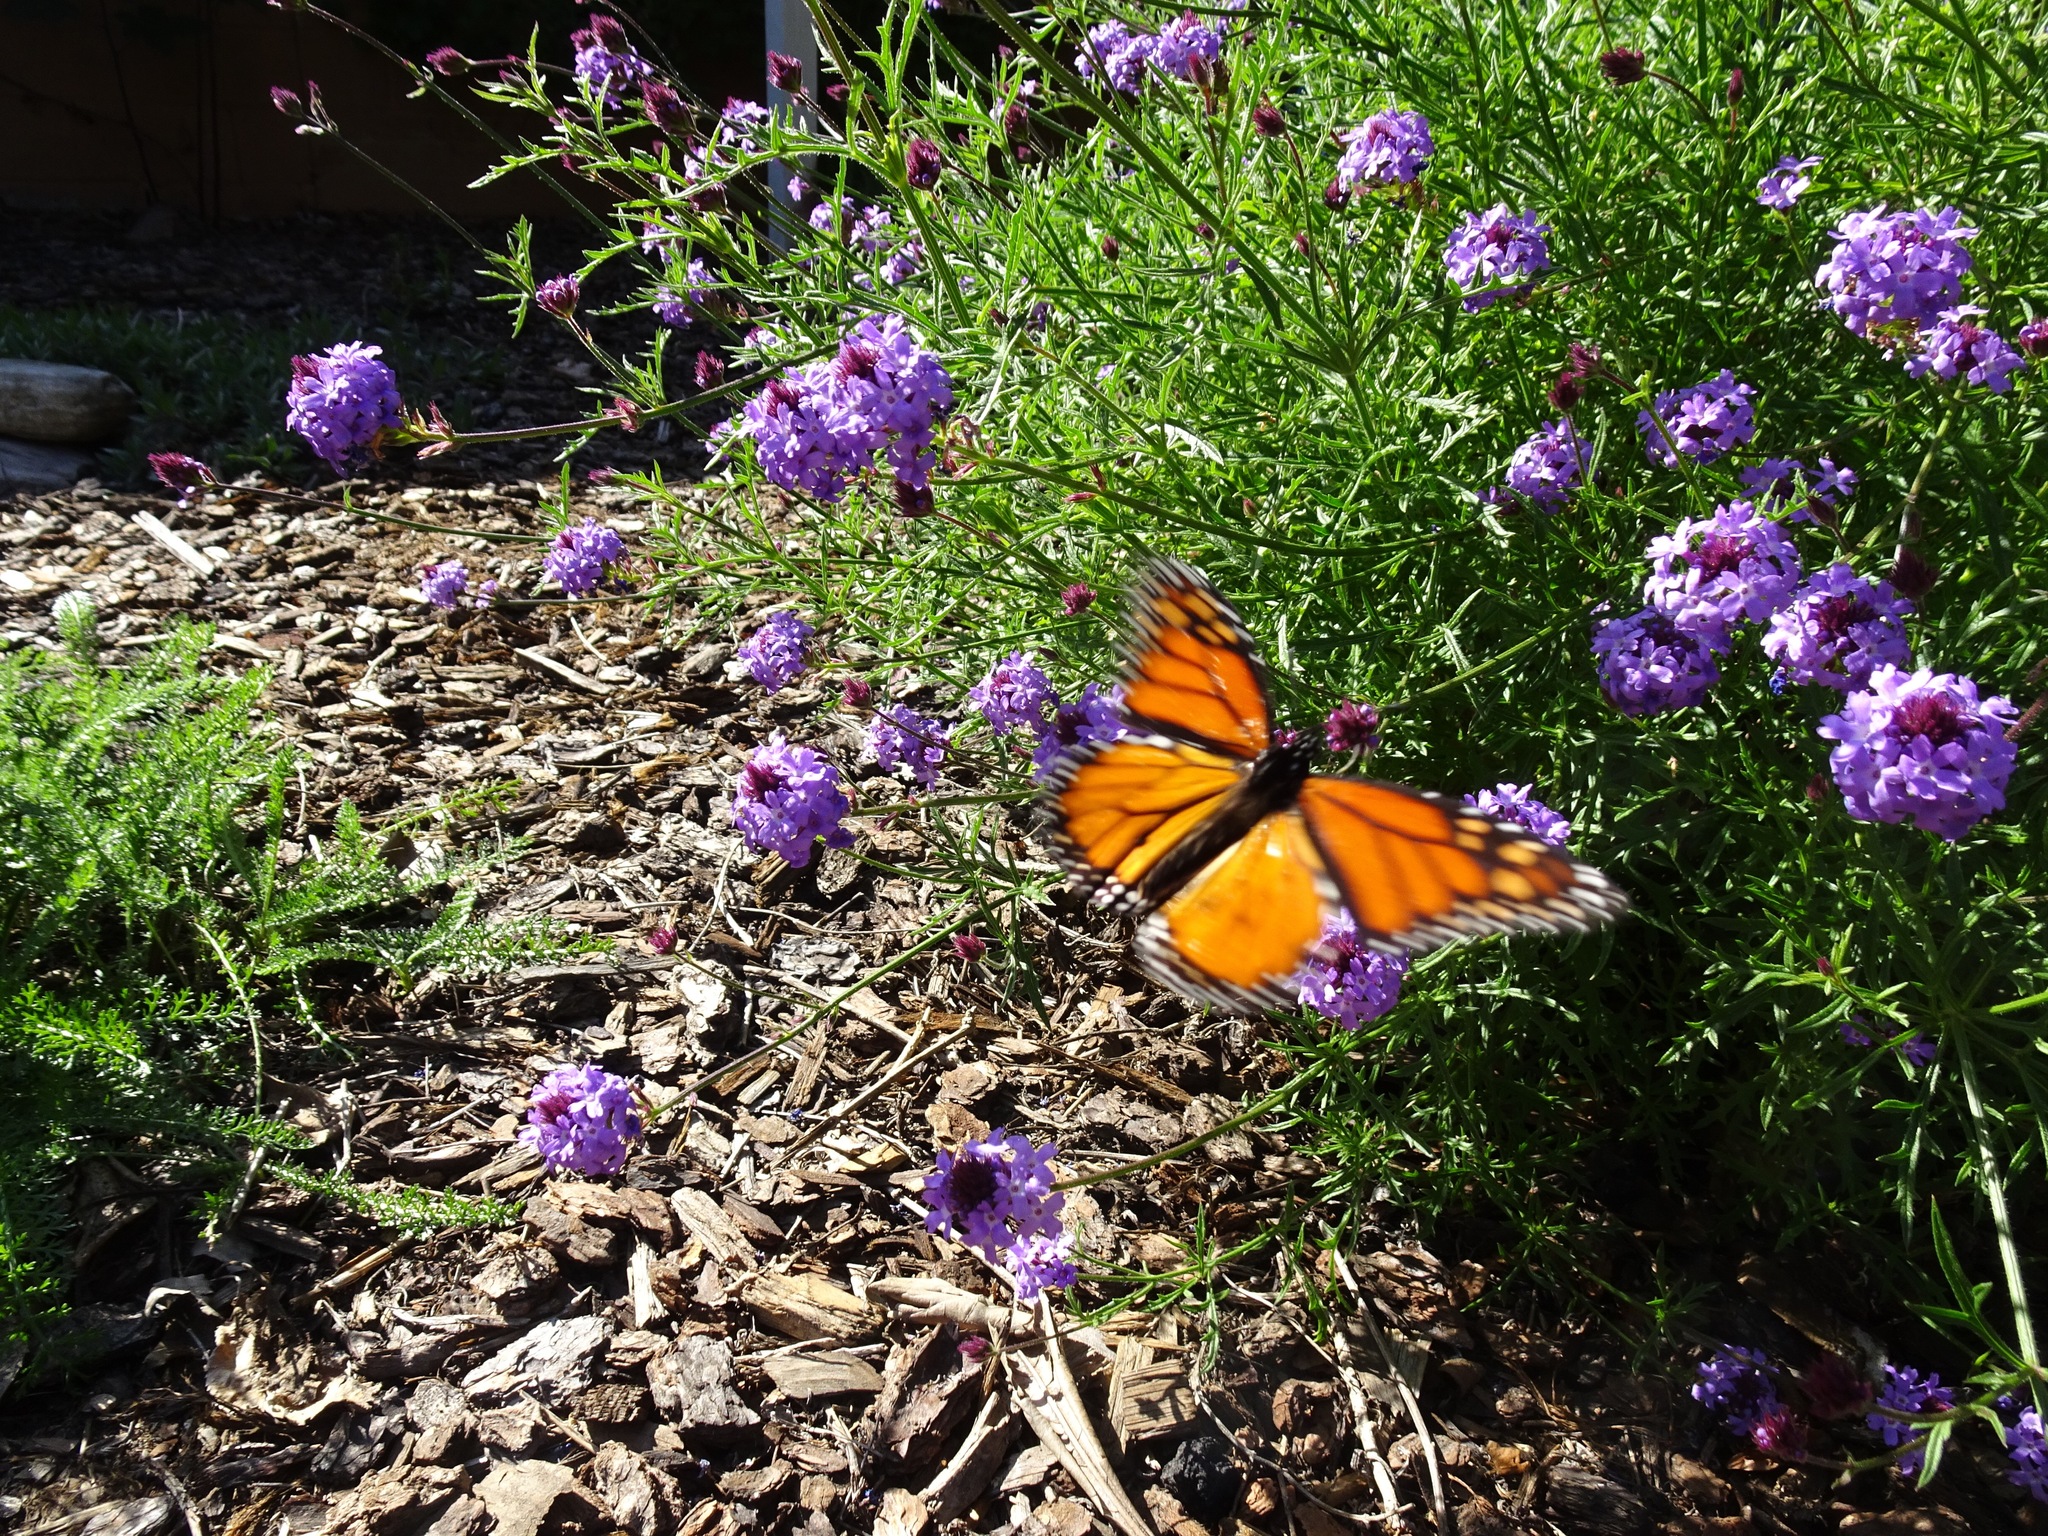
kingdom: Animalia
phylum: Arthropoda
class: Insecta
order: Lepidoptera
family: Nymphalidae
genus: Danaus
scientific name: Danaus plexippus
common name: Monarch
